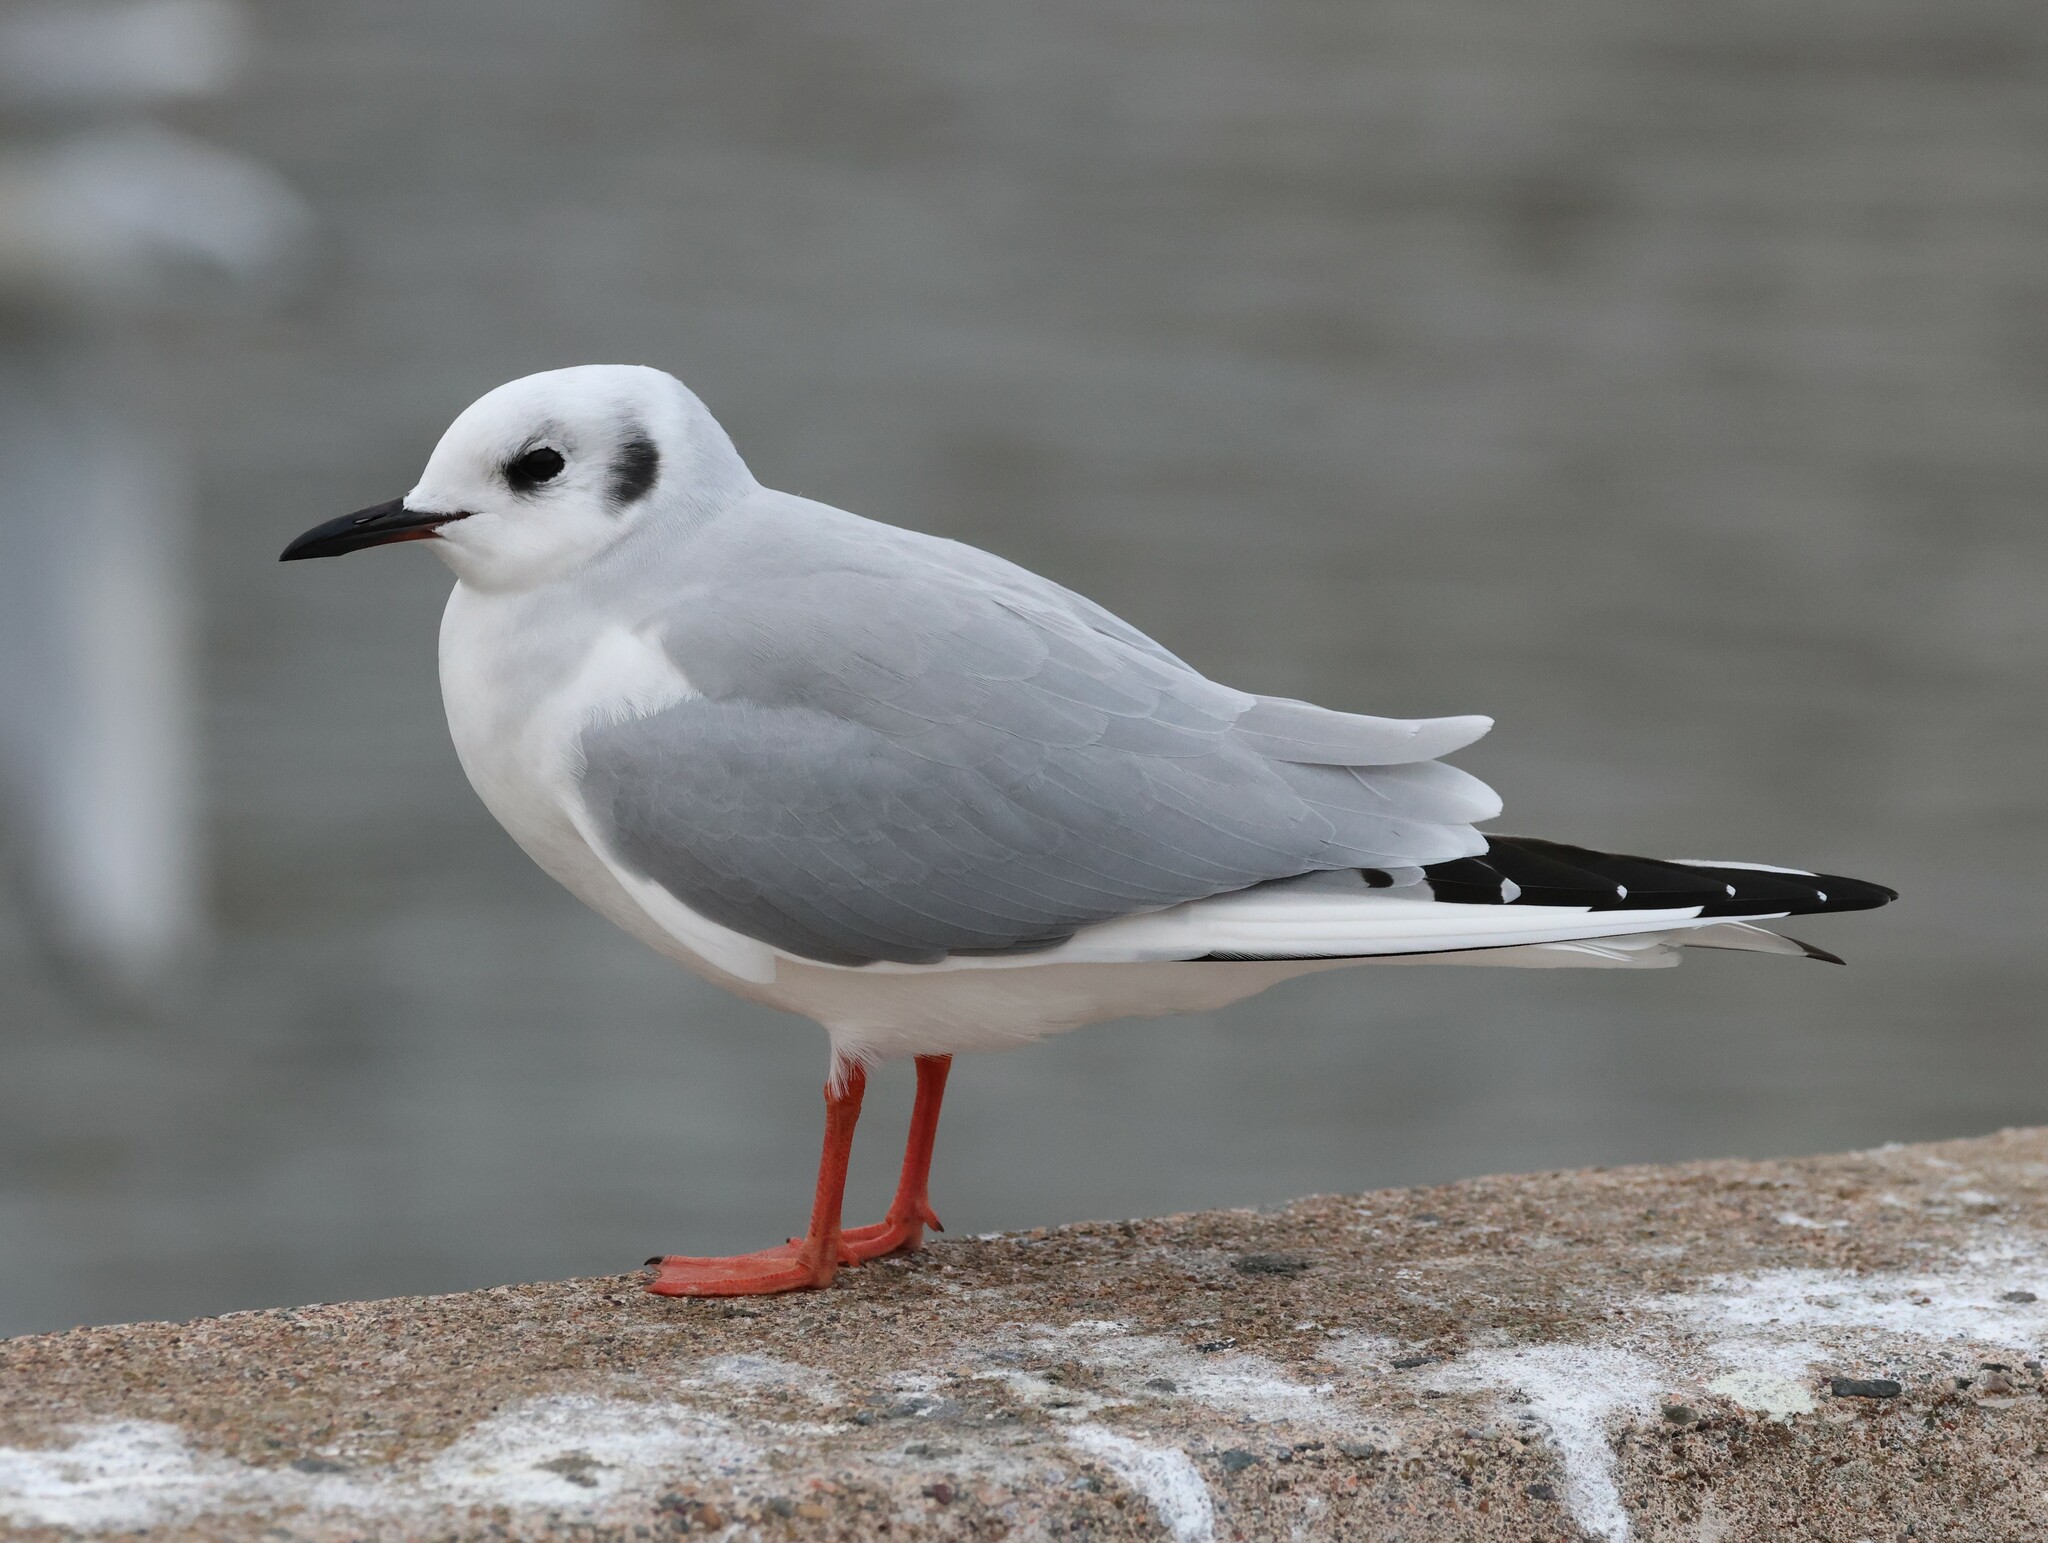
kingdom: Animalia
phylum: Chordata
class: Aves
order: Charadriiformes
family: Laridae
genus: Chroicocephalus
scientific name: Chroicocephalus philadelphia
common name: Bonaparte's gull
